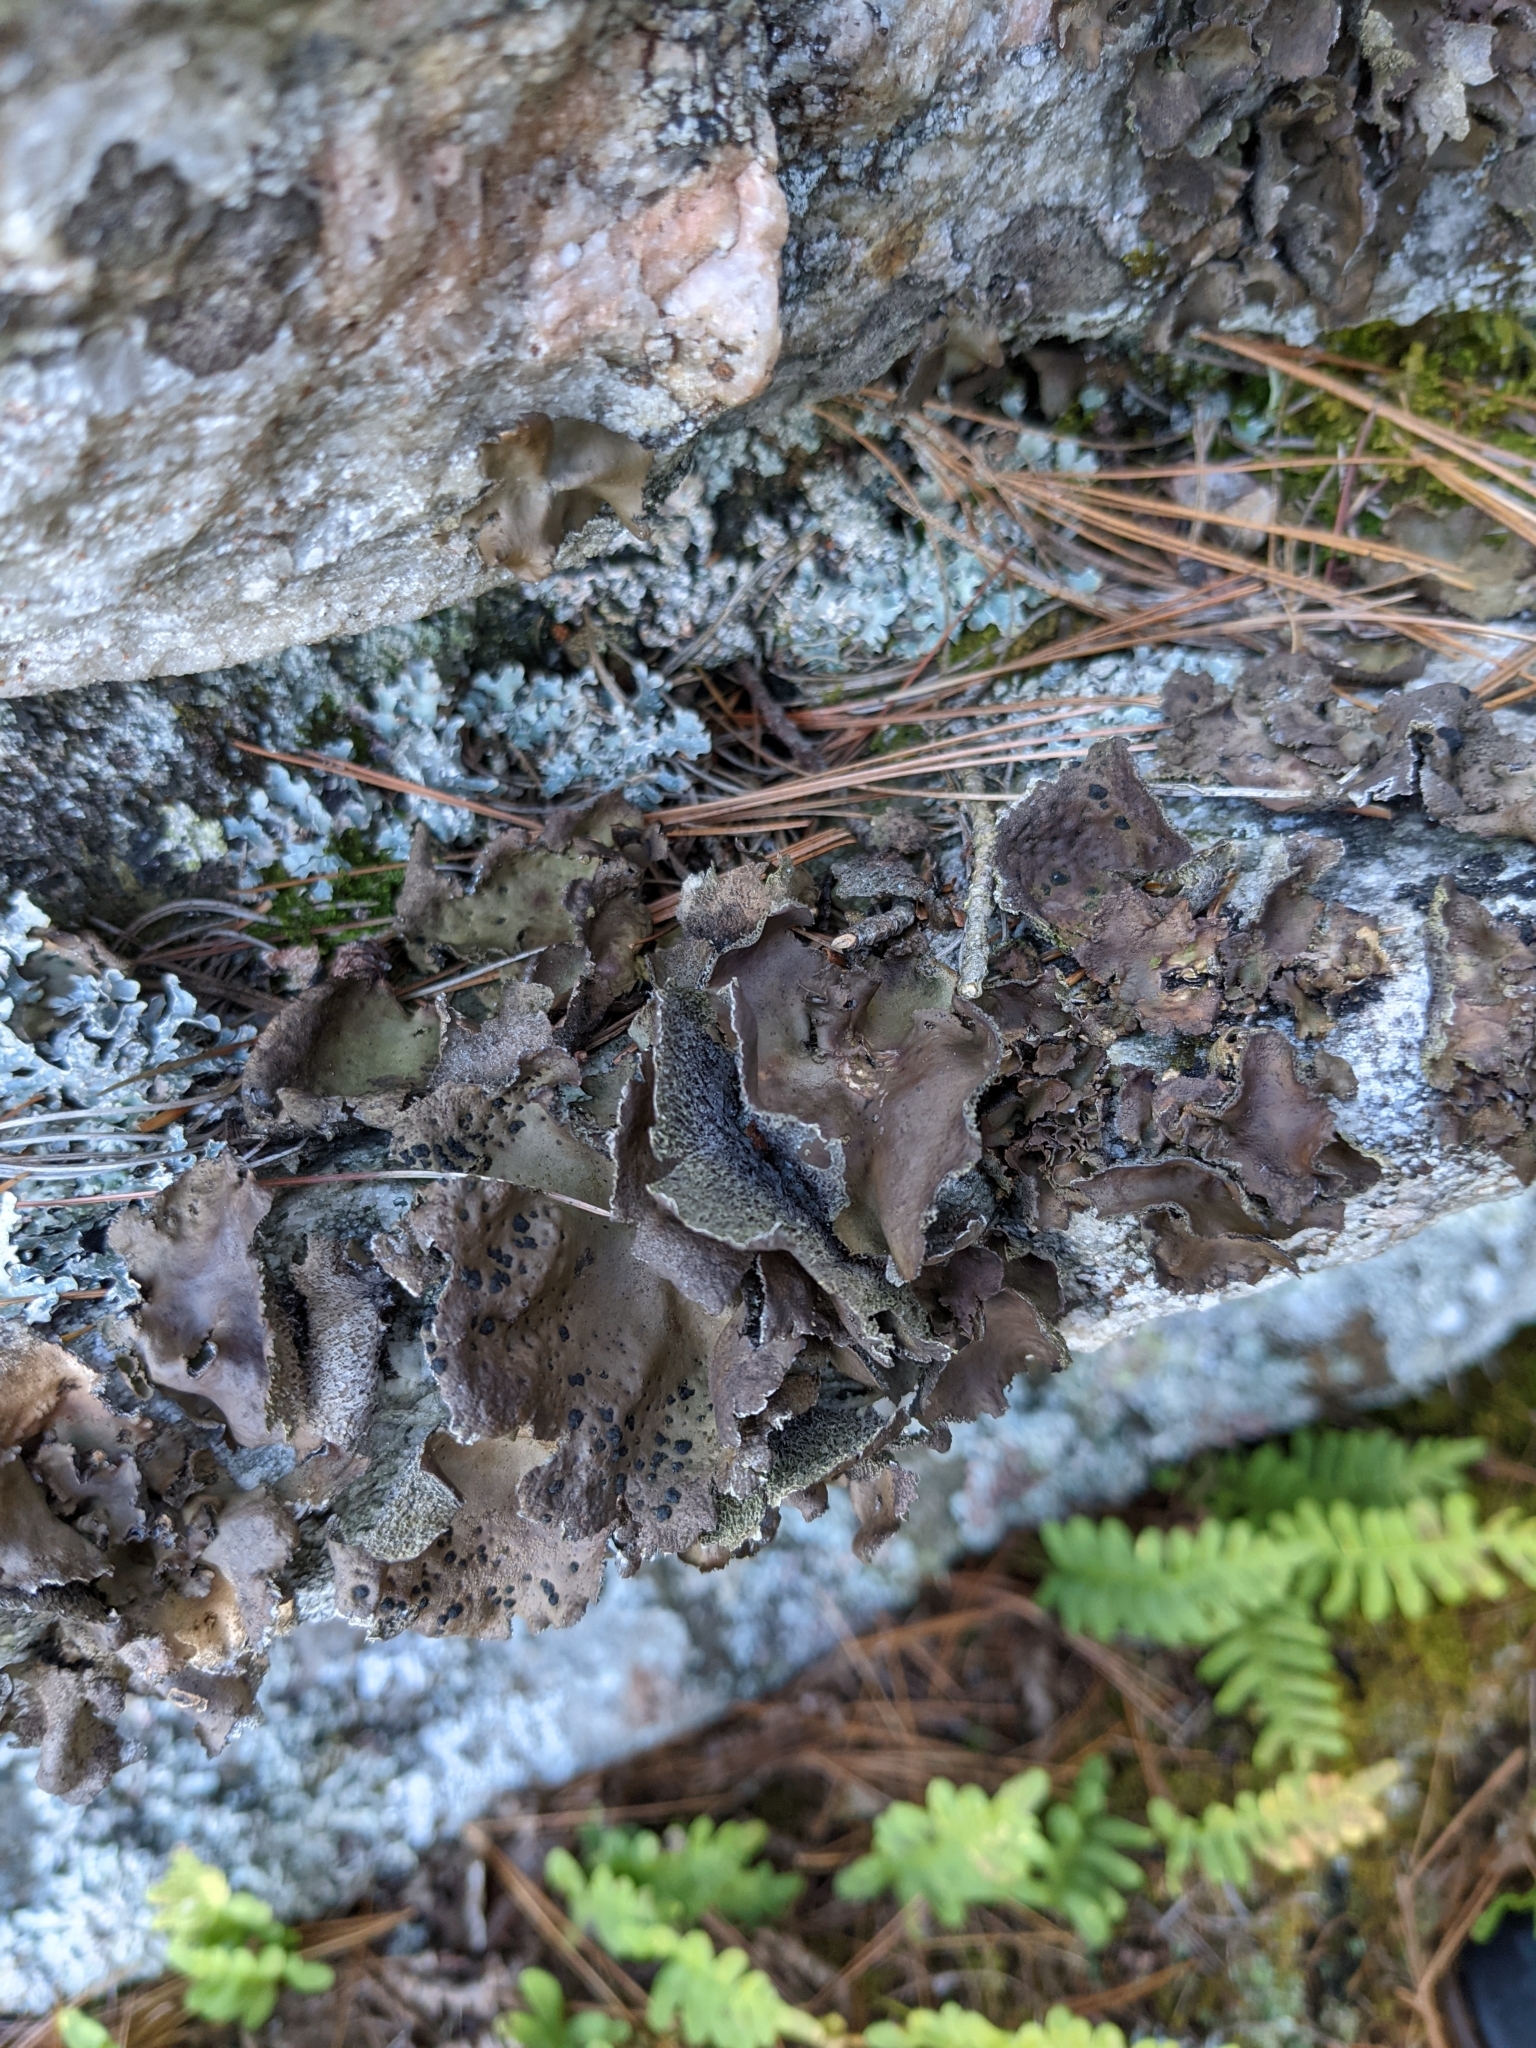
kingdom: Fungi
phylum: Ascomycota
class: Lecanoromycetes
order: Umbilicariales
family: Umbilicariaceae
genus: Umbilicaria
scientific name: Umbilicaria muhlenbergii
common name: Lesser rocktripe
